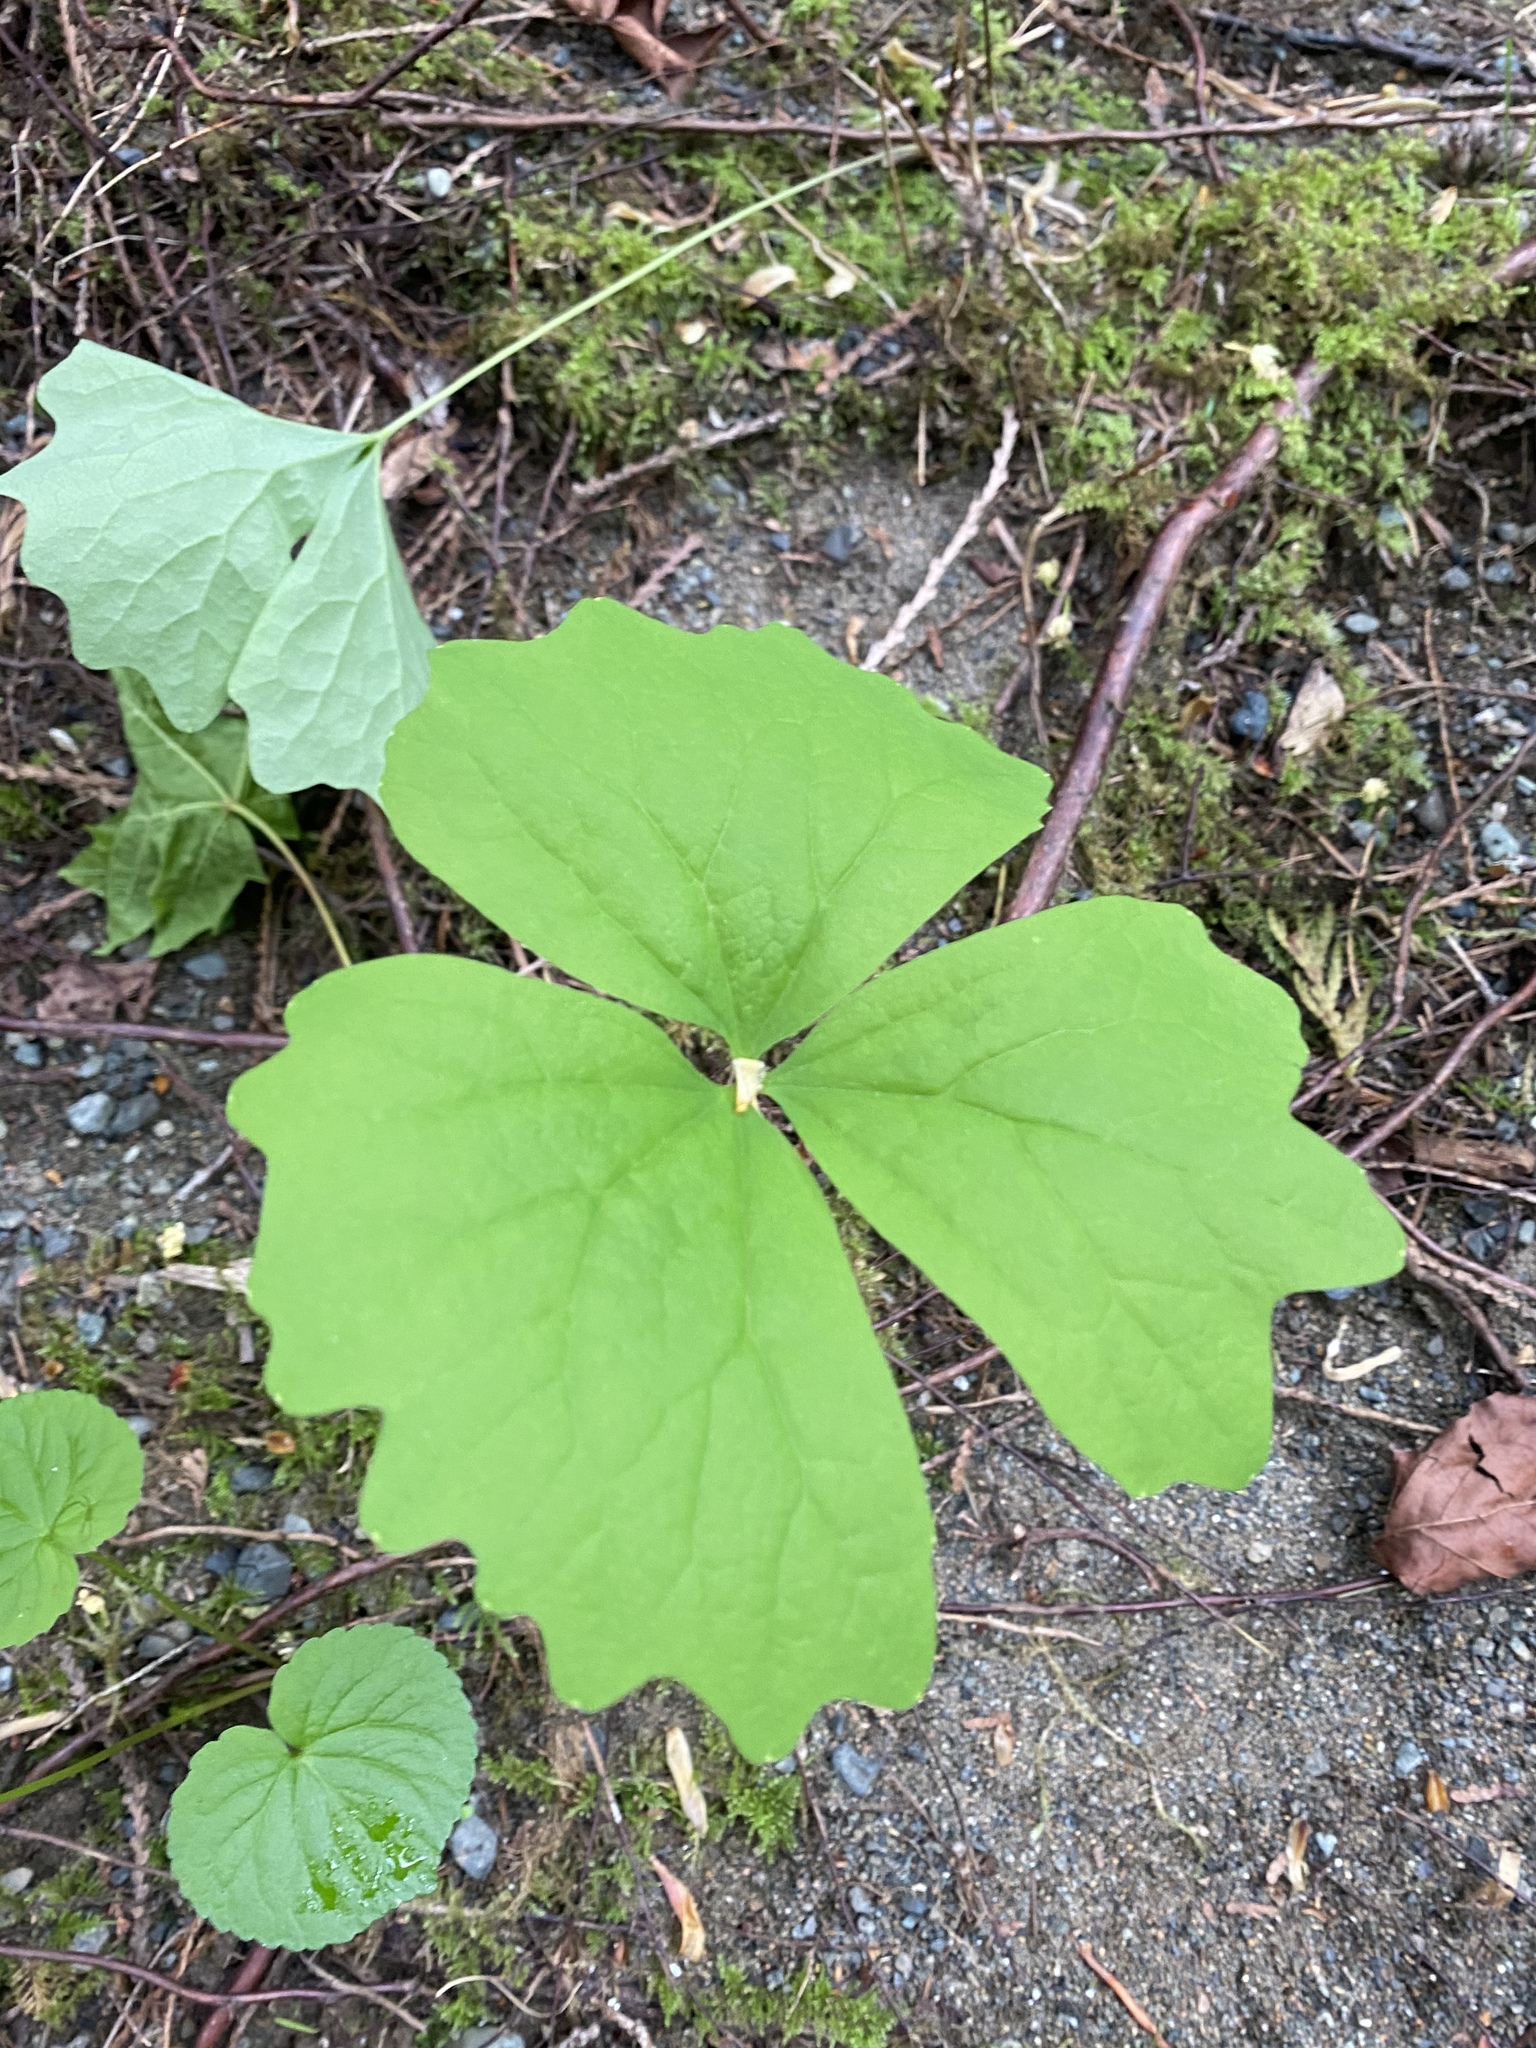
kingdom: Plantae
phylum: Tracheophyta
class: Magnoliopsida
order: Ranunculales
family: Berberidaceae
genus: Achlys
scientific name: Achlys triphylla
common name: Vanilla-leaf
